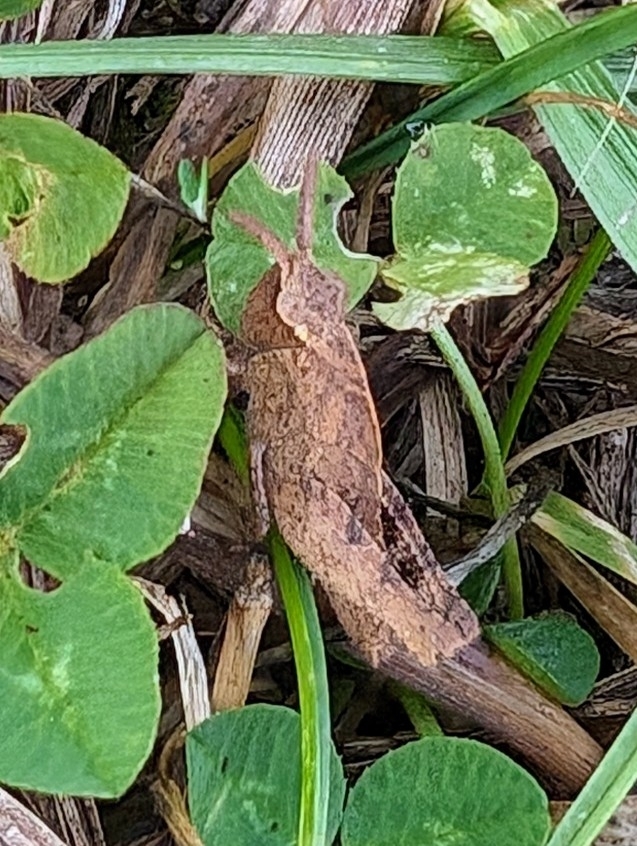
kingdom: Animalia
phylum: Arthropoda
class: Insecta
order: Orthoptera
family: Acrididae
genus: Chortophaga
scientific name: Chortophaga viridifasciata
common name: Green-striped grasshopper
